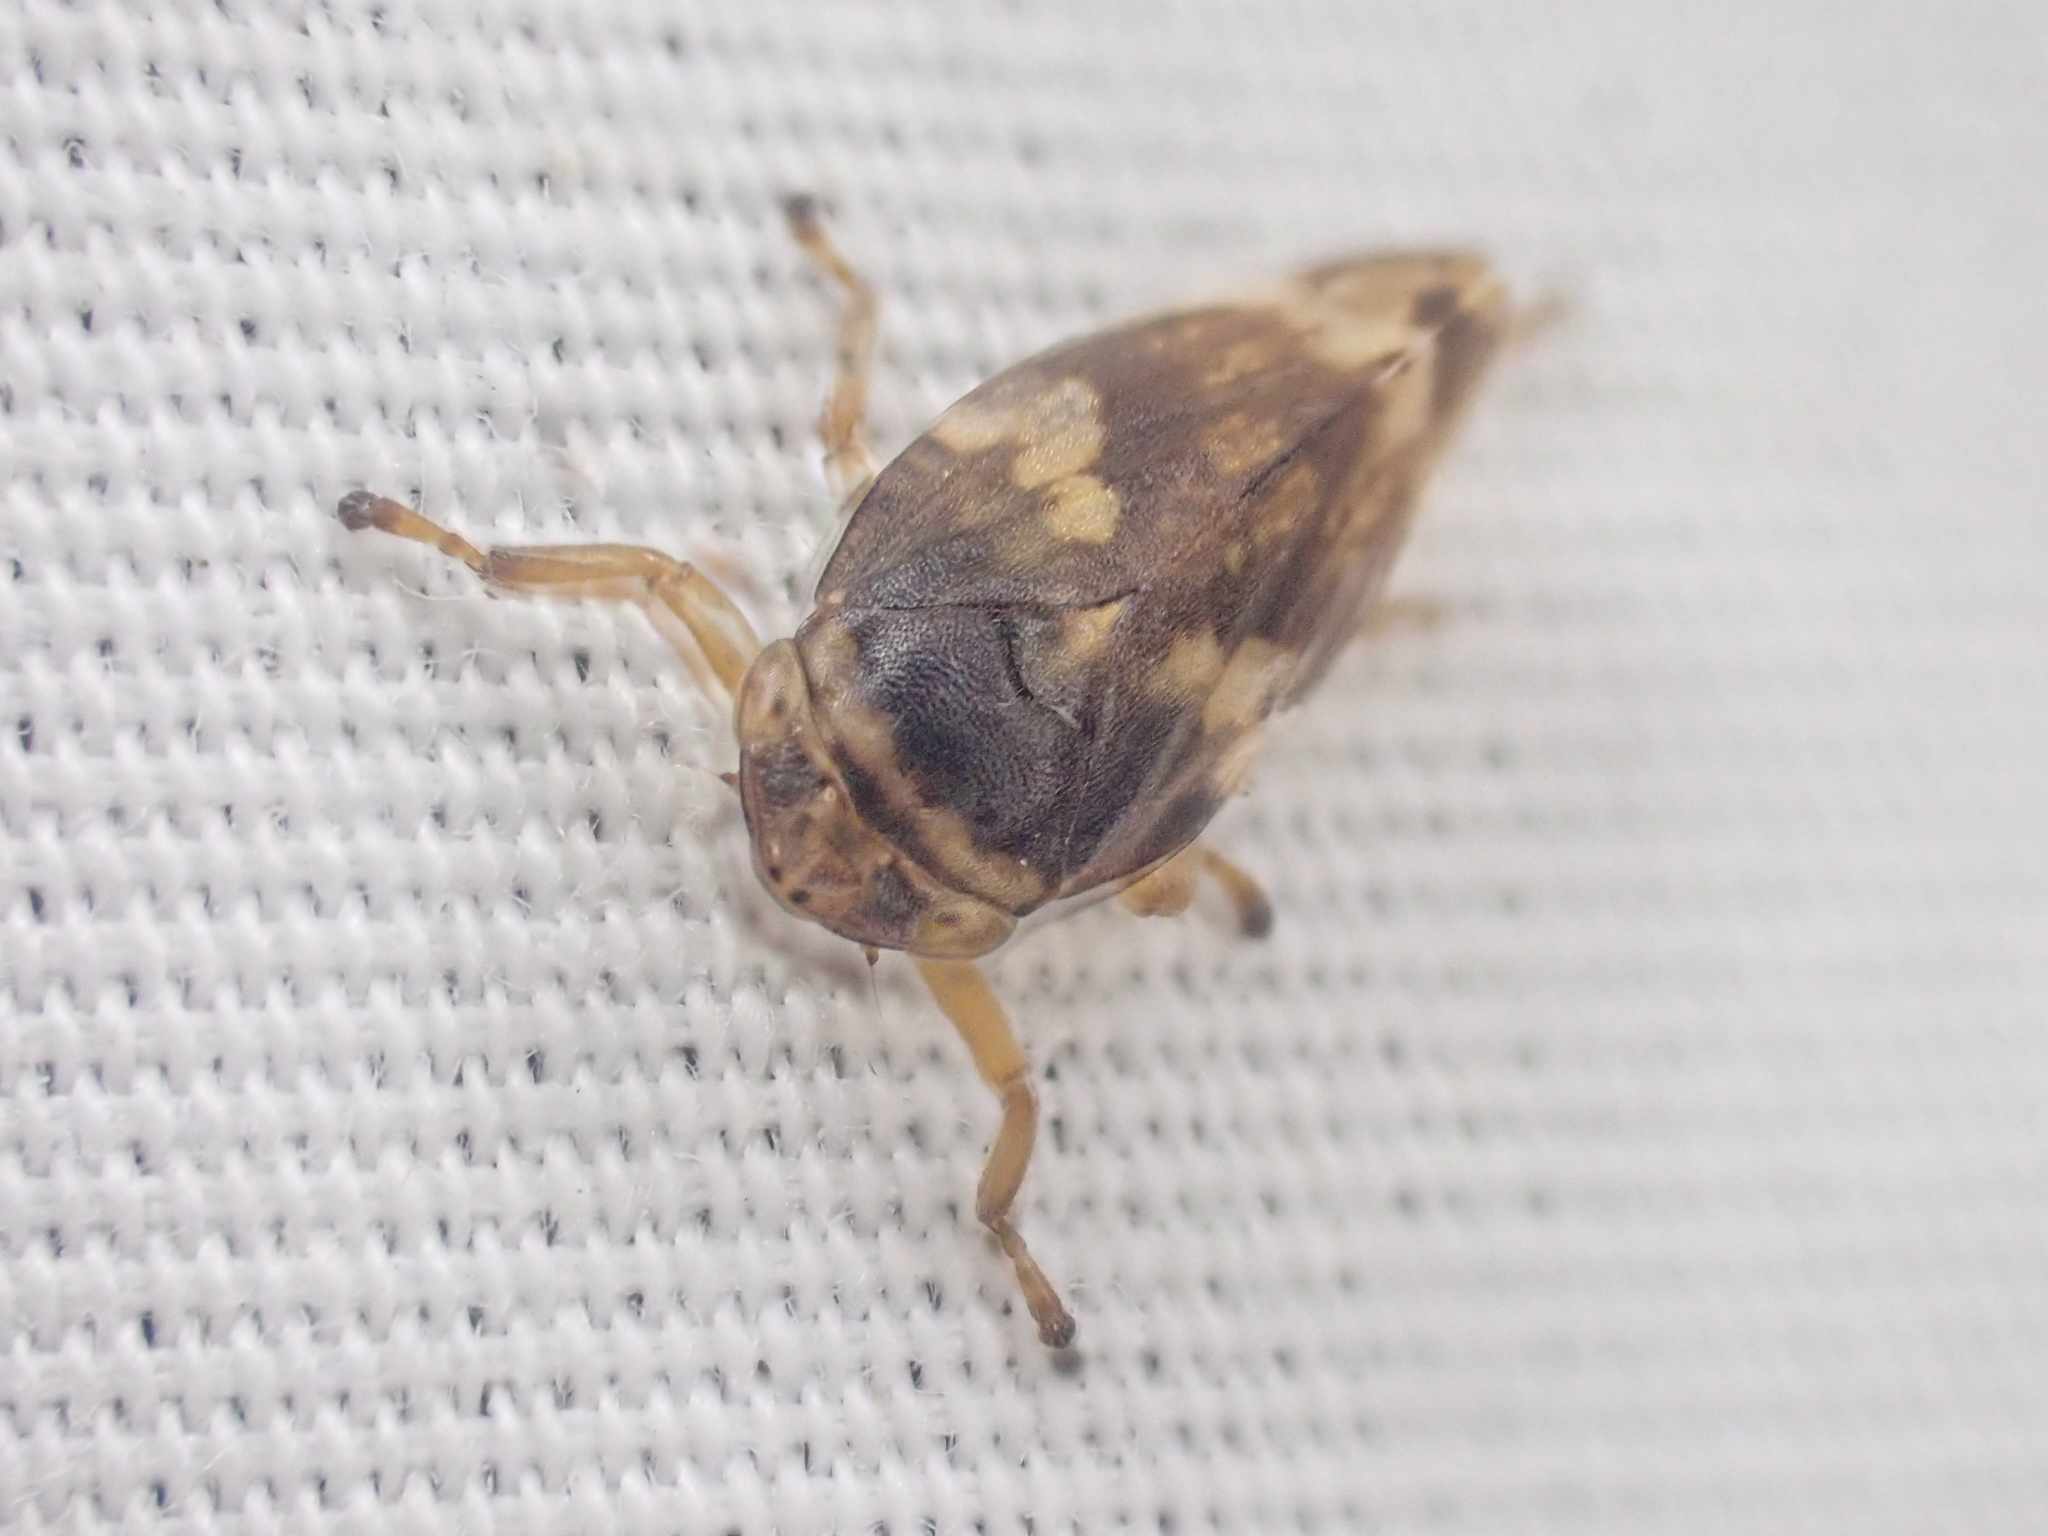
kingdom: Animalia
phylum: Arthropoda
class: Insecta
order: Hemiptera
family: Aphrophoridae
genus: Philaenus
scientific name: Philaenus spumarius
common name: Meadow spittlebug
